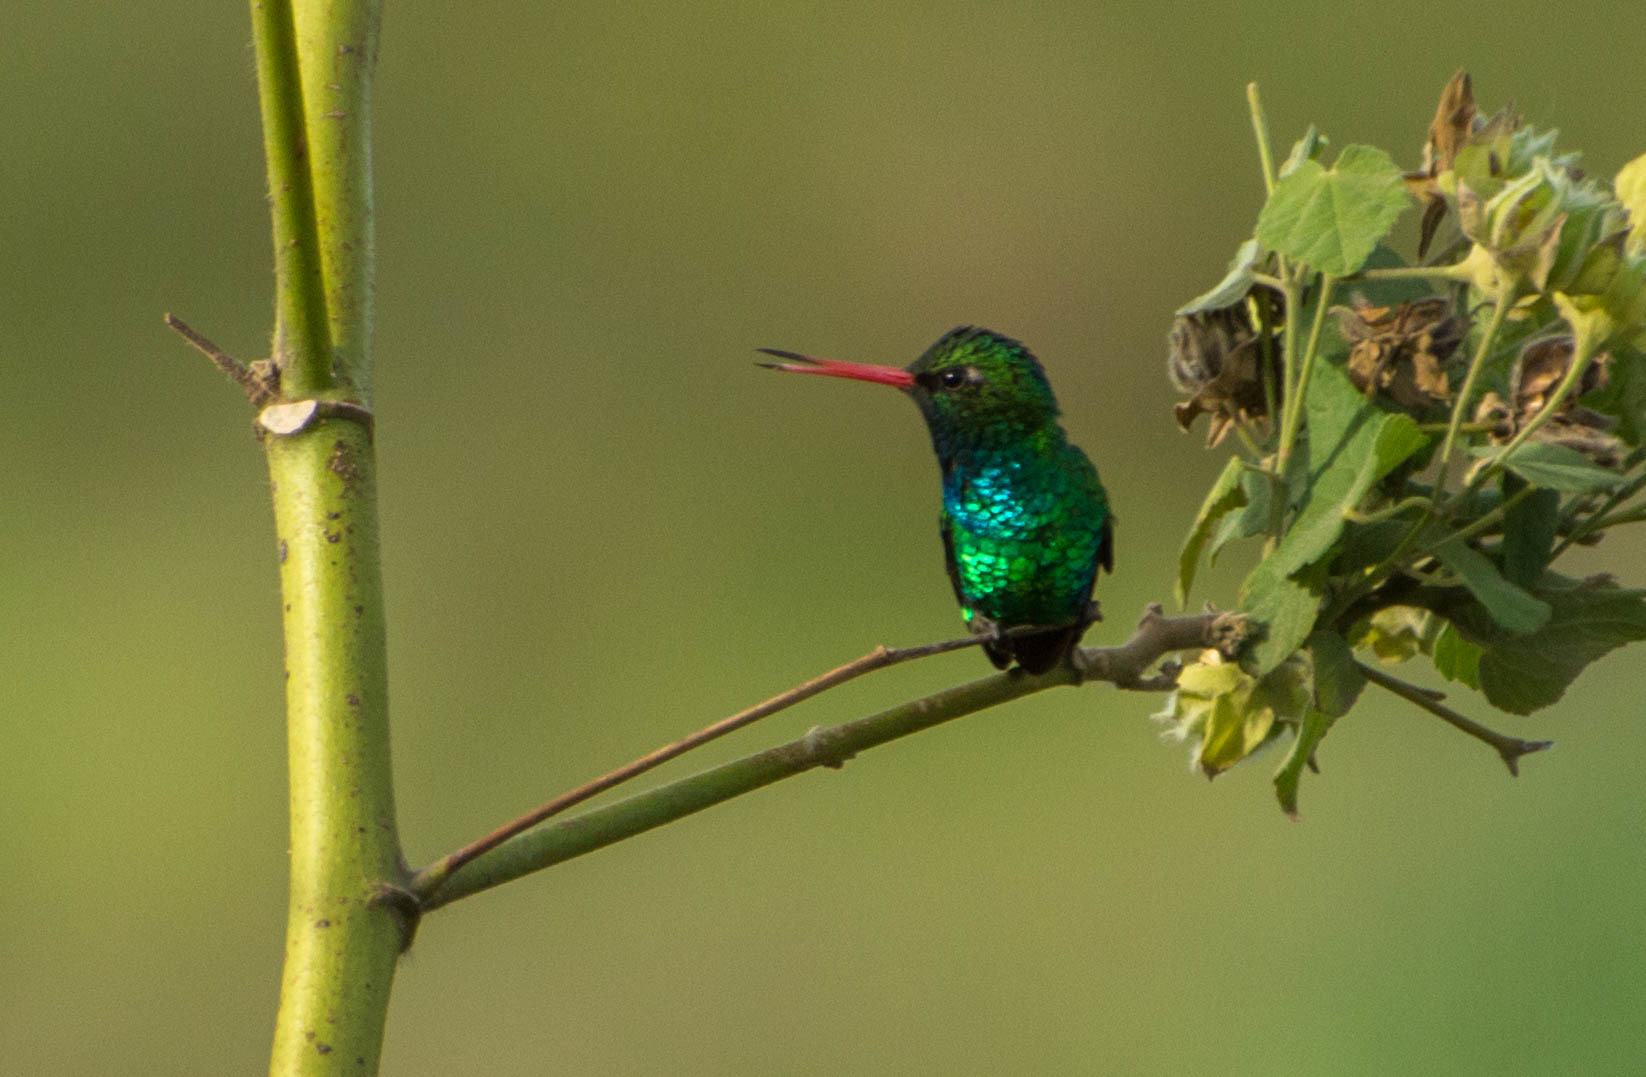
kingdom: Animalia
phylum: Chordata
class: Aves
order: Apodiformes
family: Trochilidae
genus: Chlorostilbon
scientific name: Chlorostilbon lucidus
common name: Glittering-bellied emerald
